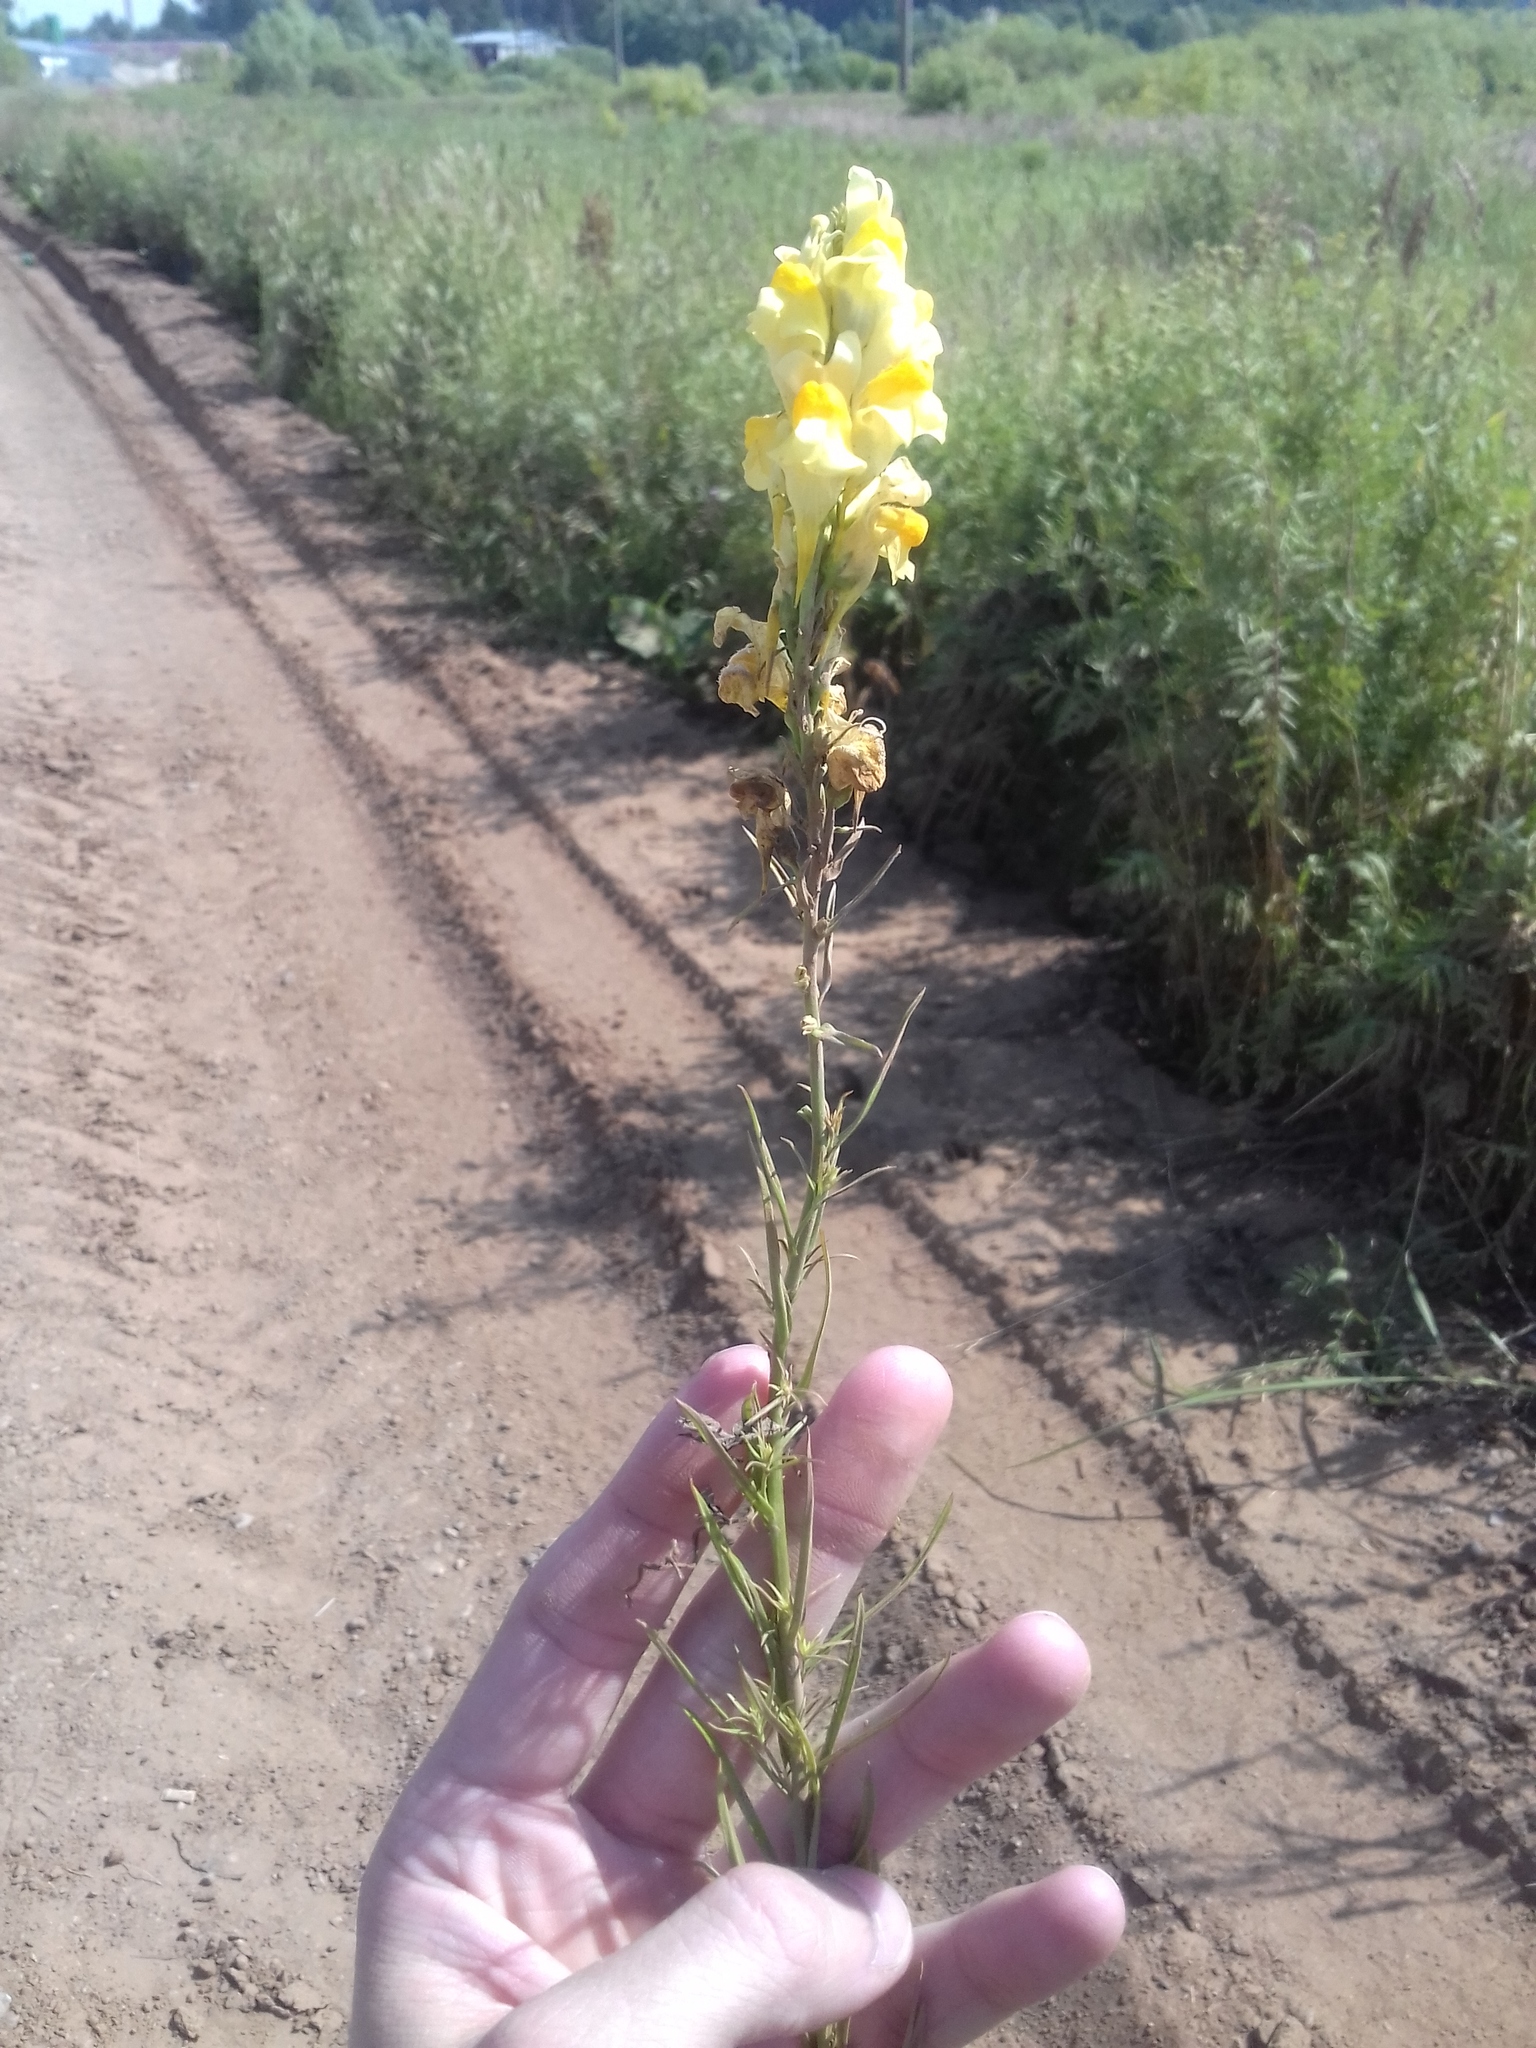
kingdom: Plantae
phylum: Tracheophyta
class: Magnoliopsida
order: Lamiales
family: Plantaginaceae
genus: Linaria
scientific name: Linaria vulgaris
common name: Butter and eggs
